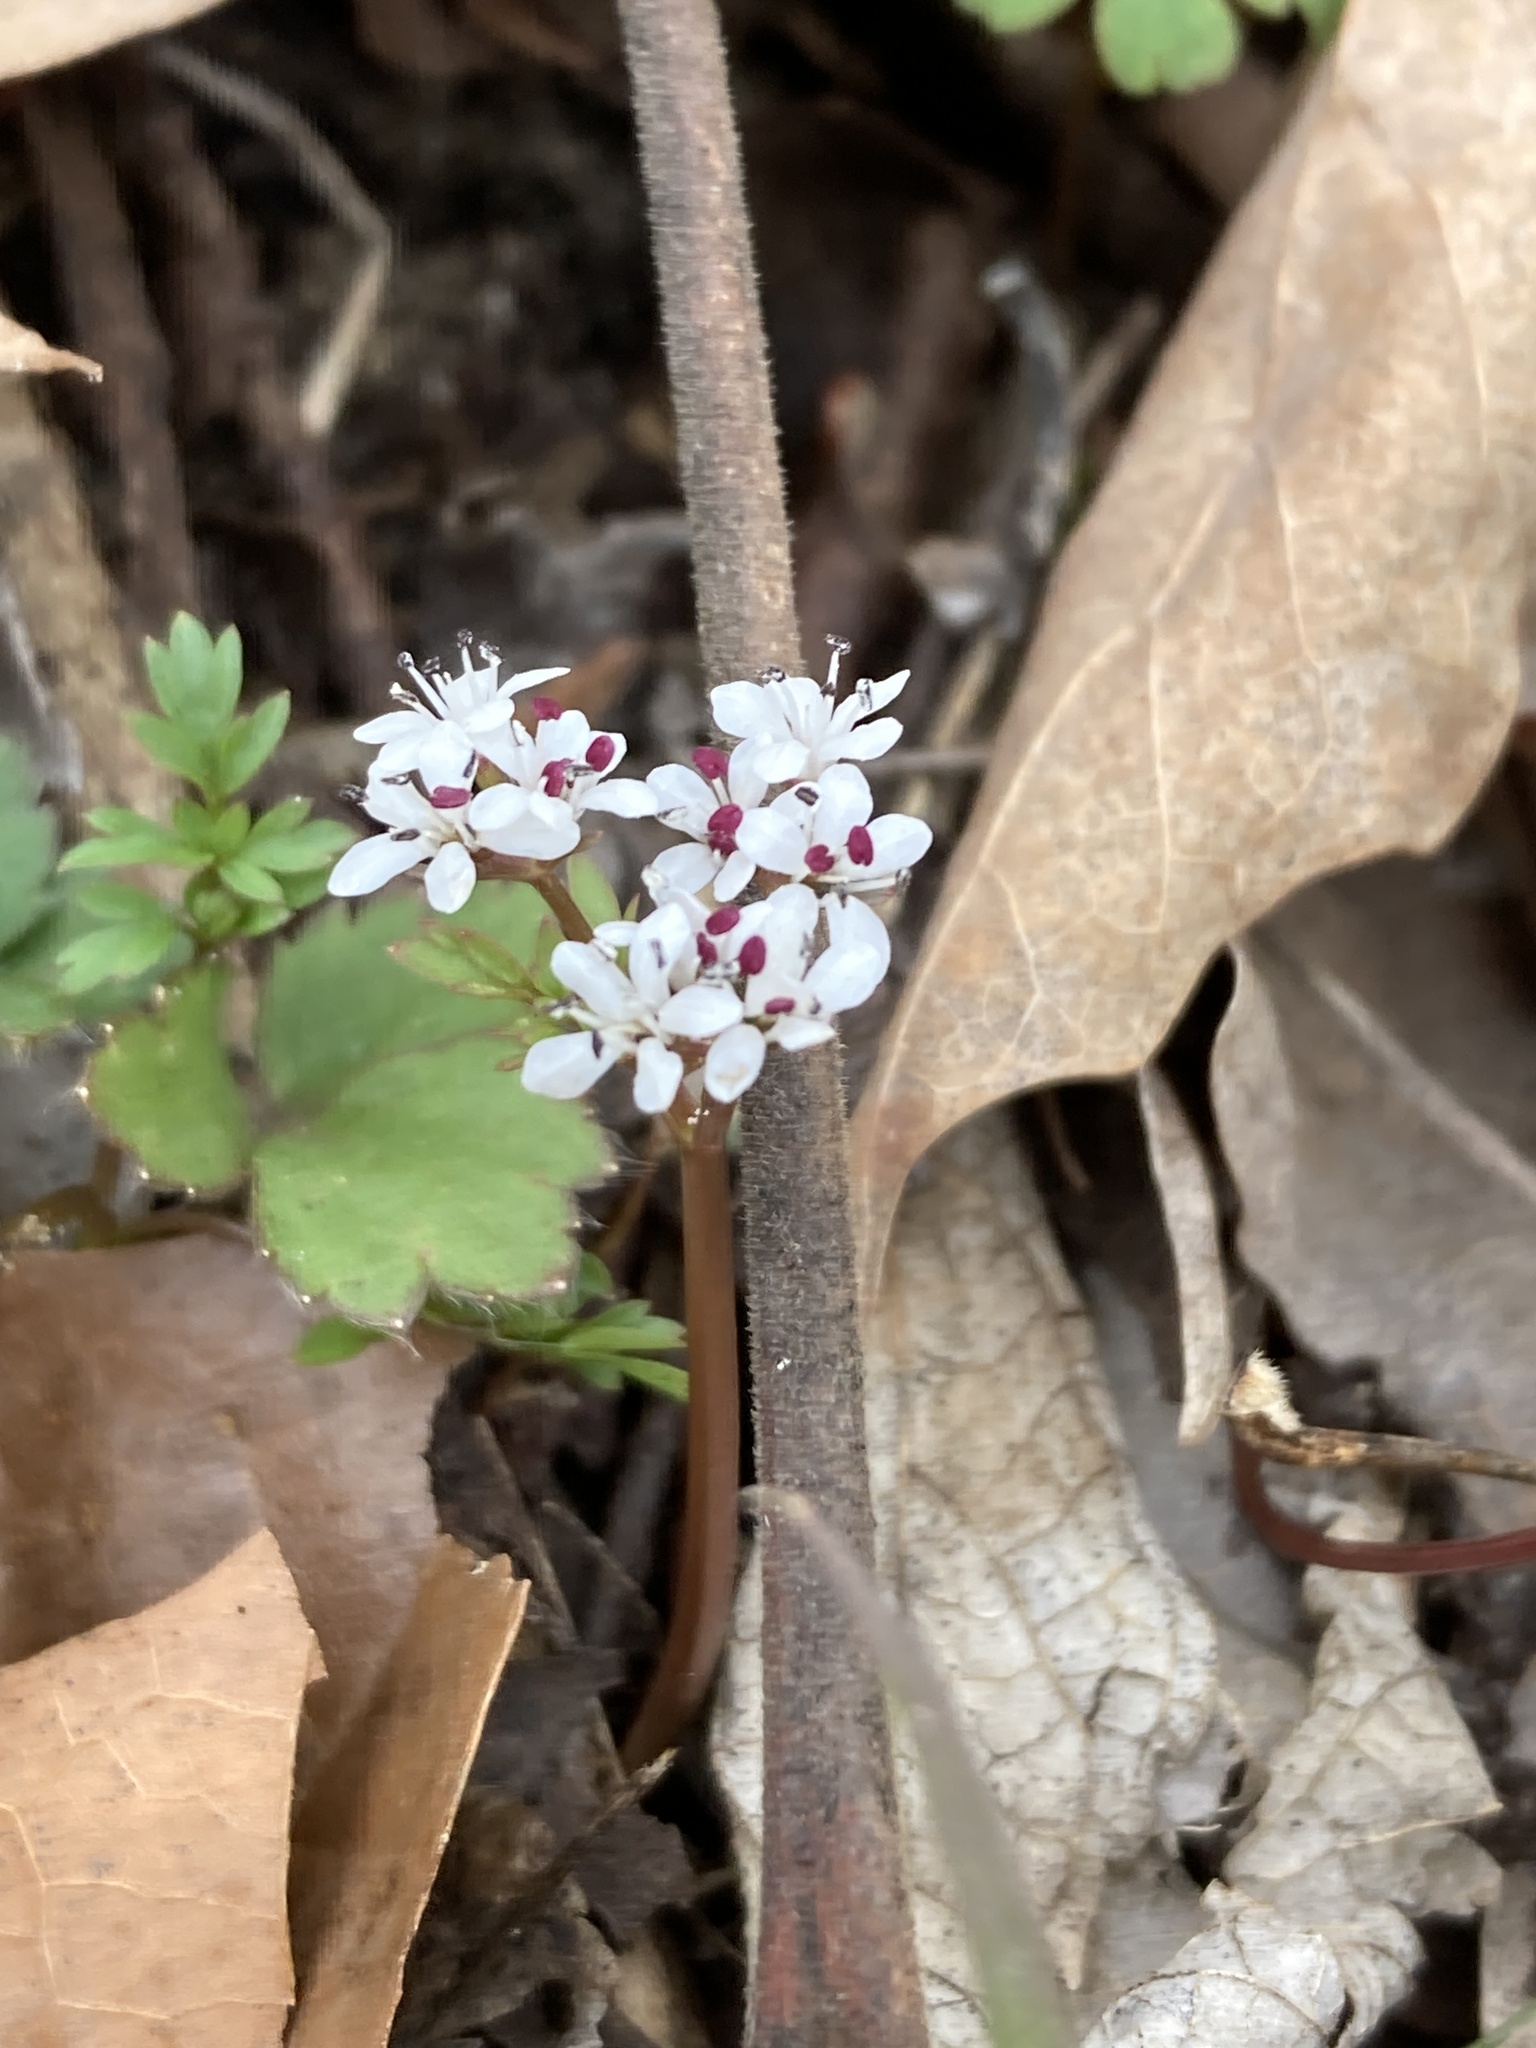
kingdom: Plantae
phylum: Tracheophyta
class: Magnoliopsida
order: Apiales
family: Apiaceae
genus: Erigenia
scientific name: Erigenia bulbosa
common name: Pepper-and-salt
